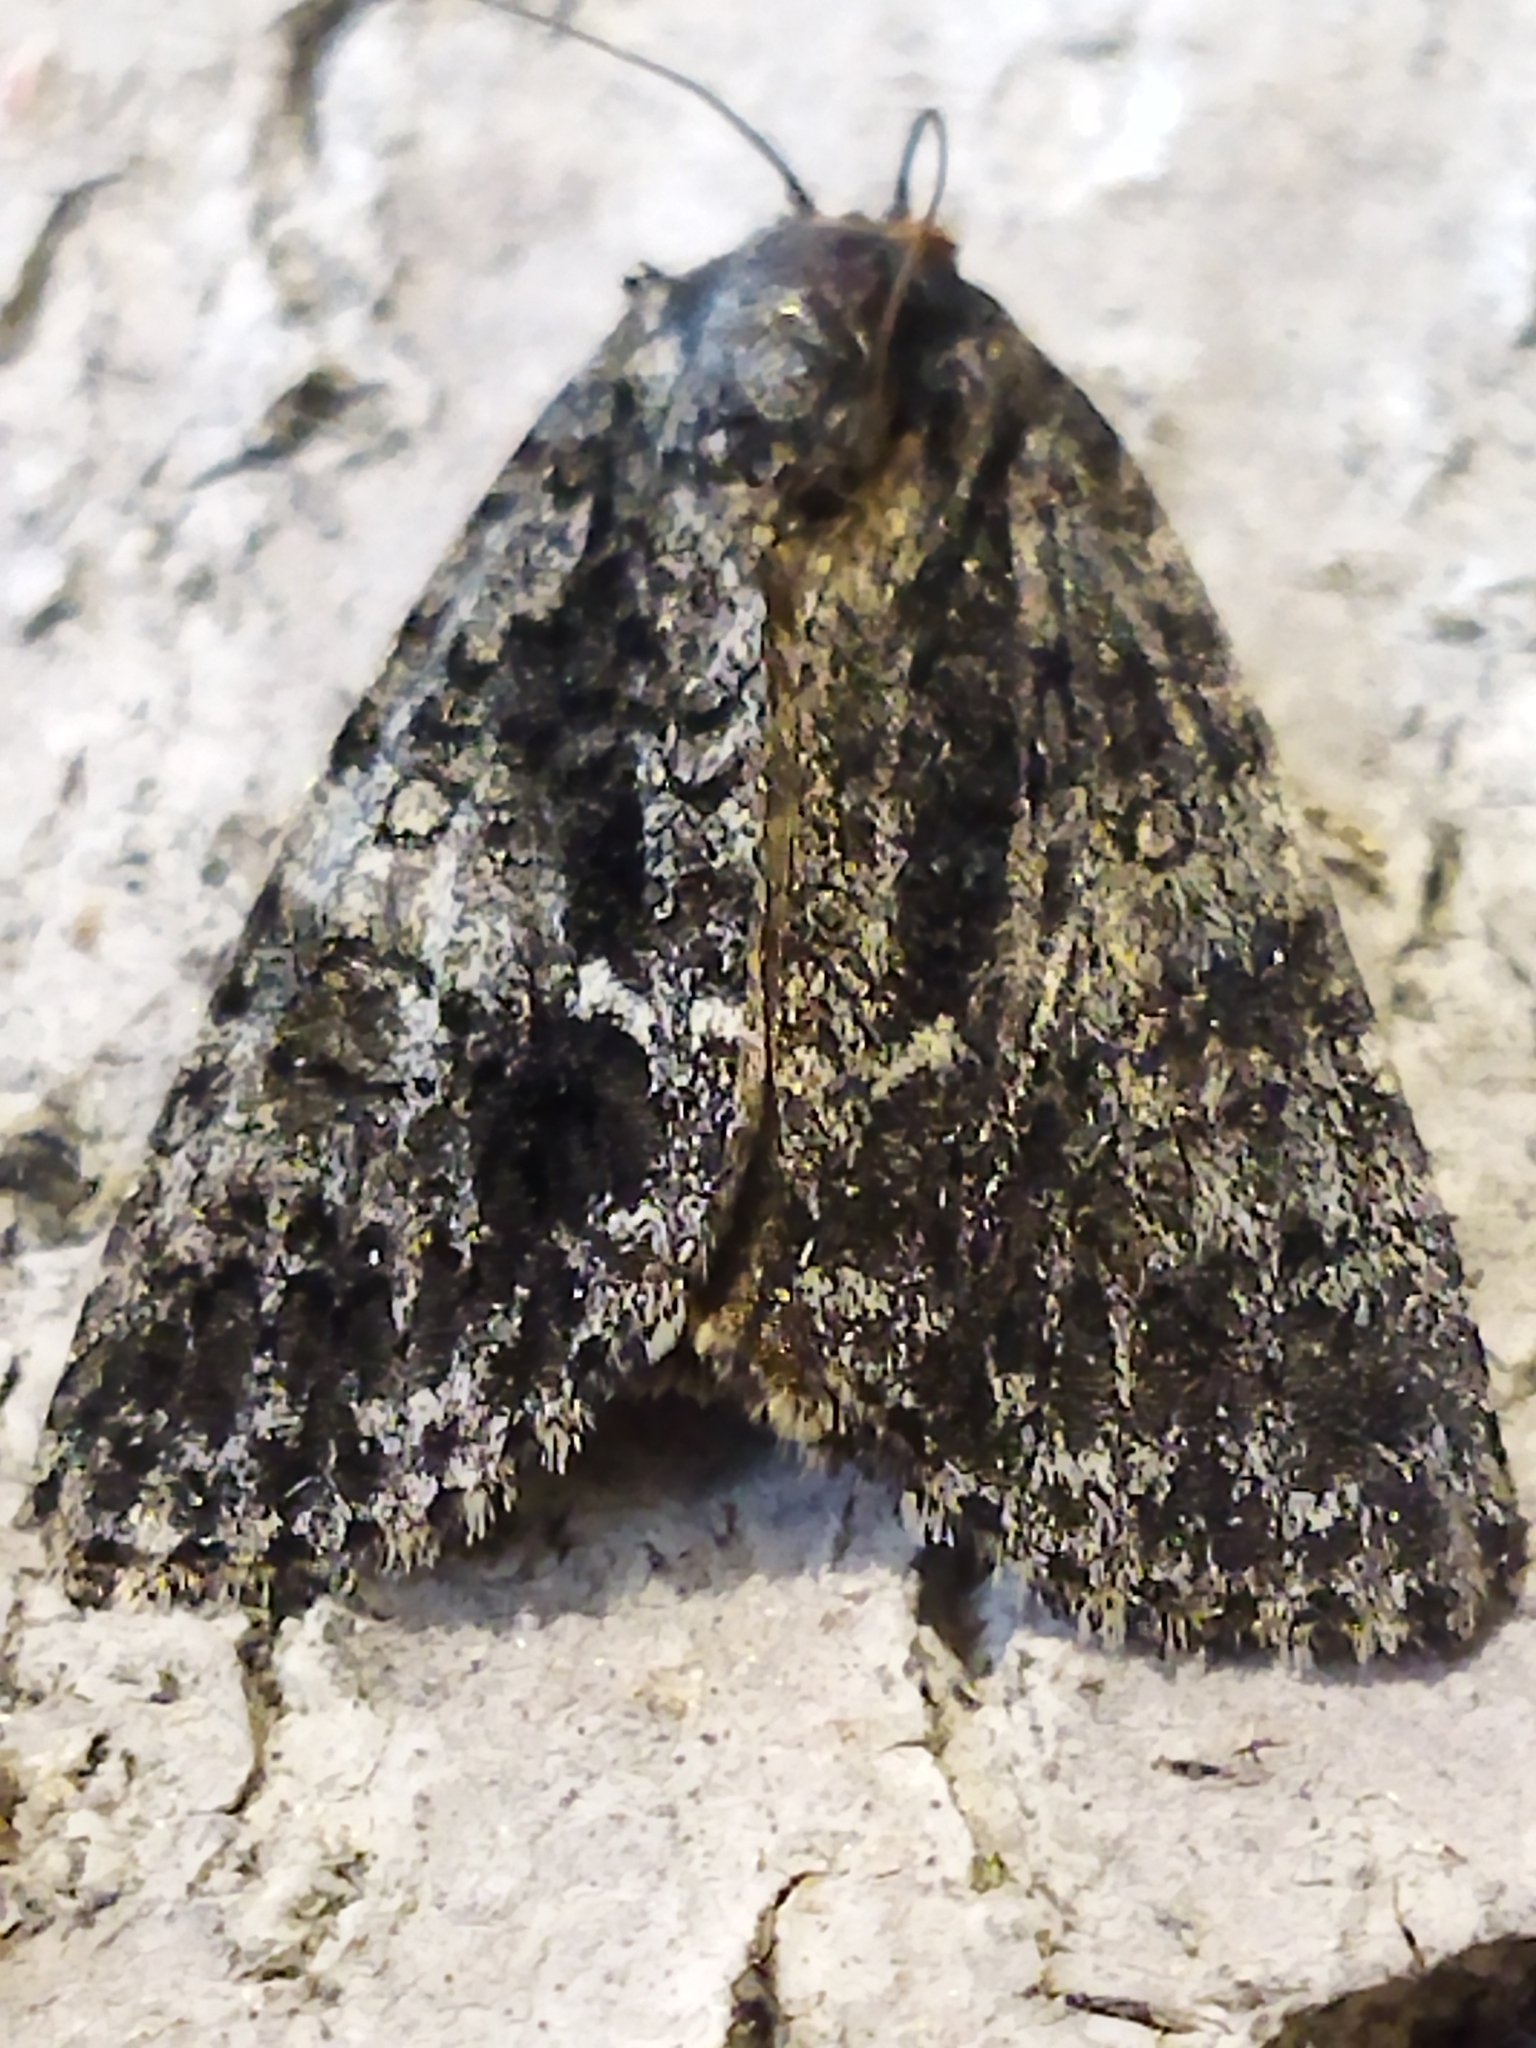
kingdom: Animalia
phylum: Arthropoda
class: Insecta
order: Lepidoptera
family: Noctuidae
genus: Acronicta
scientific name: Acronicta rumicis
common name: Knot grass
